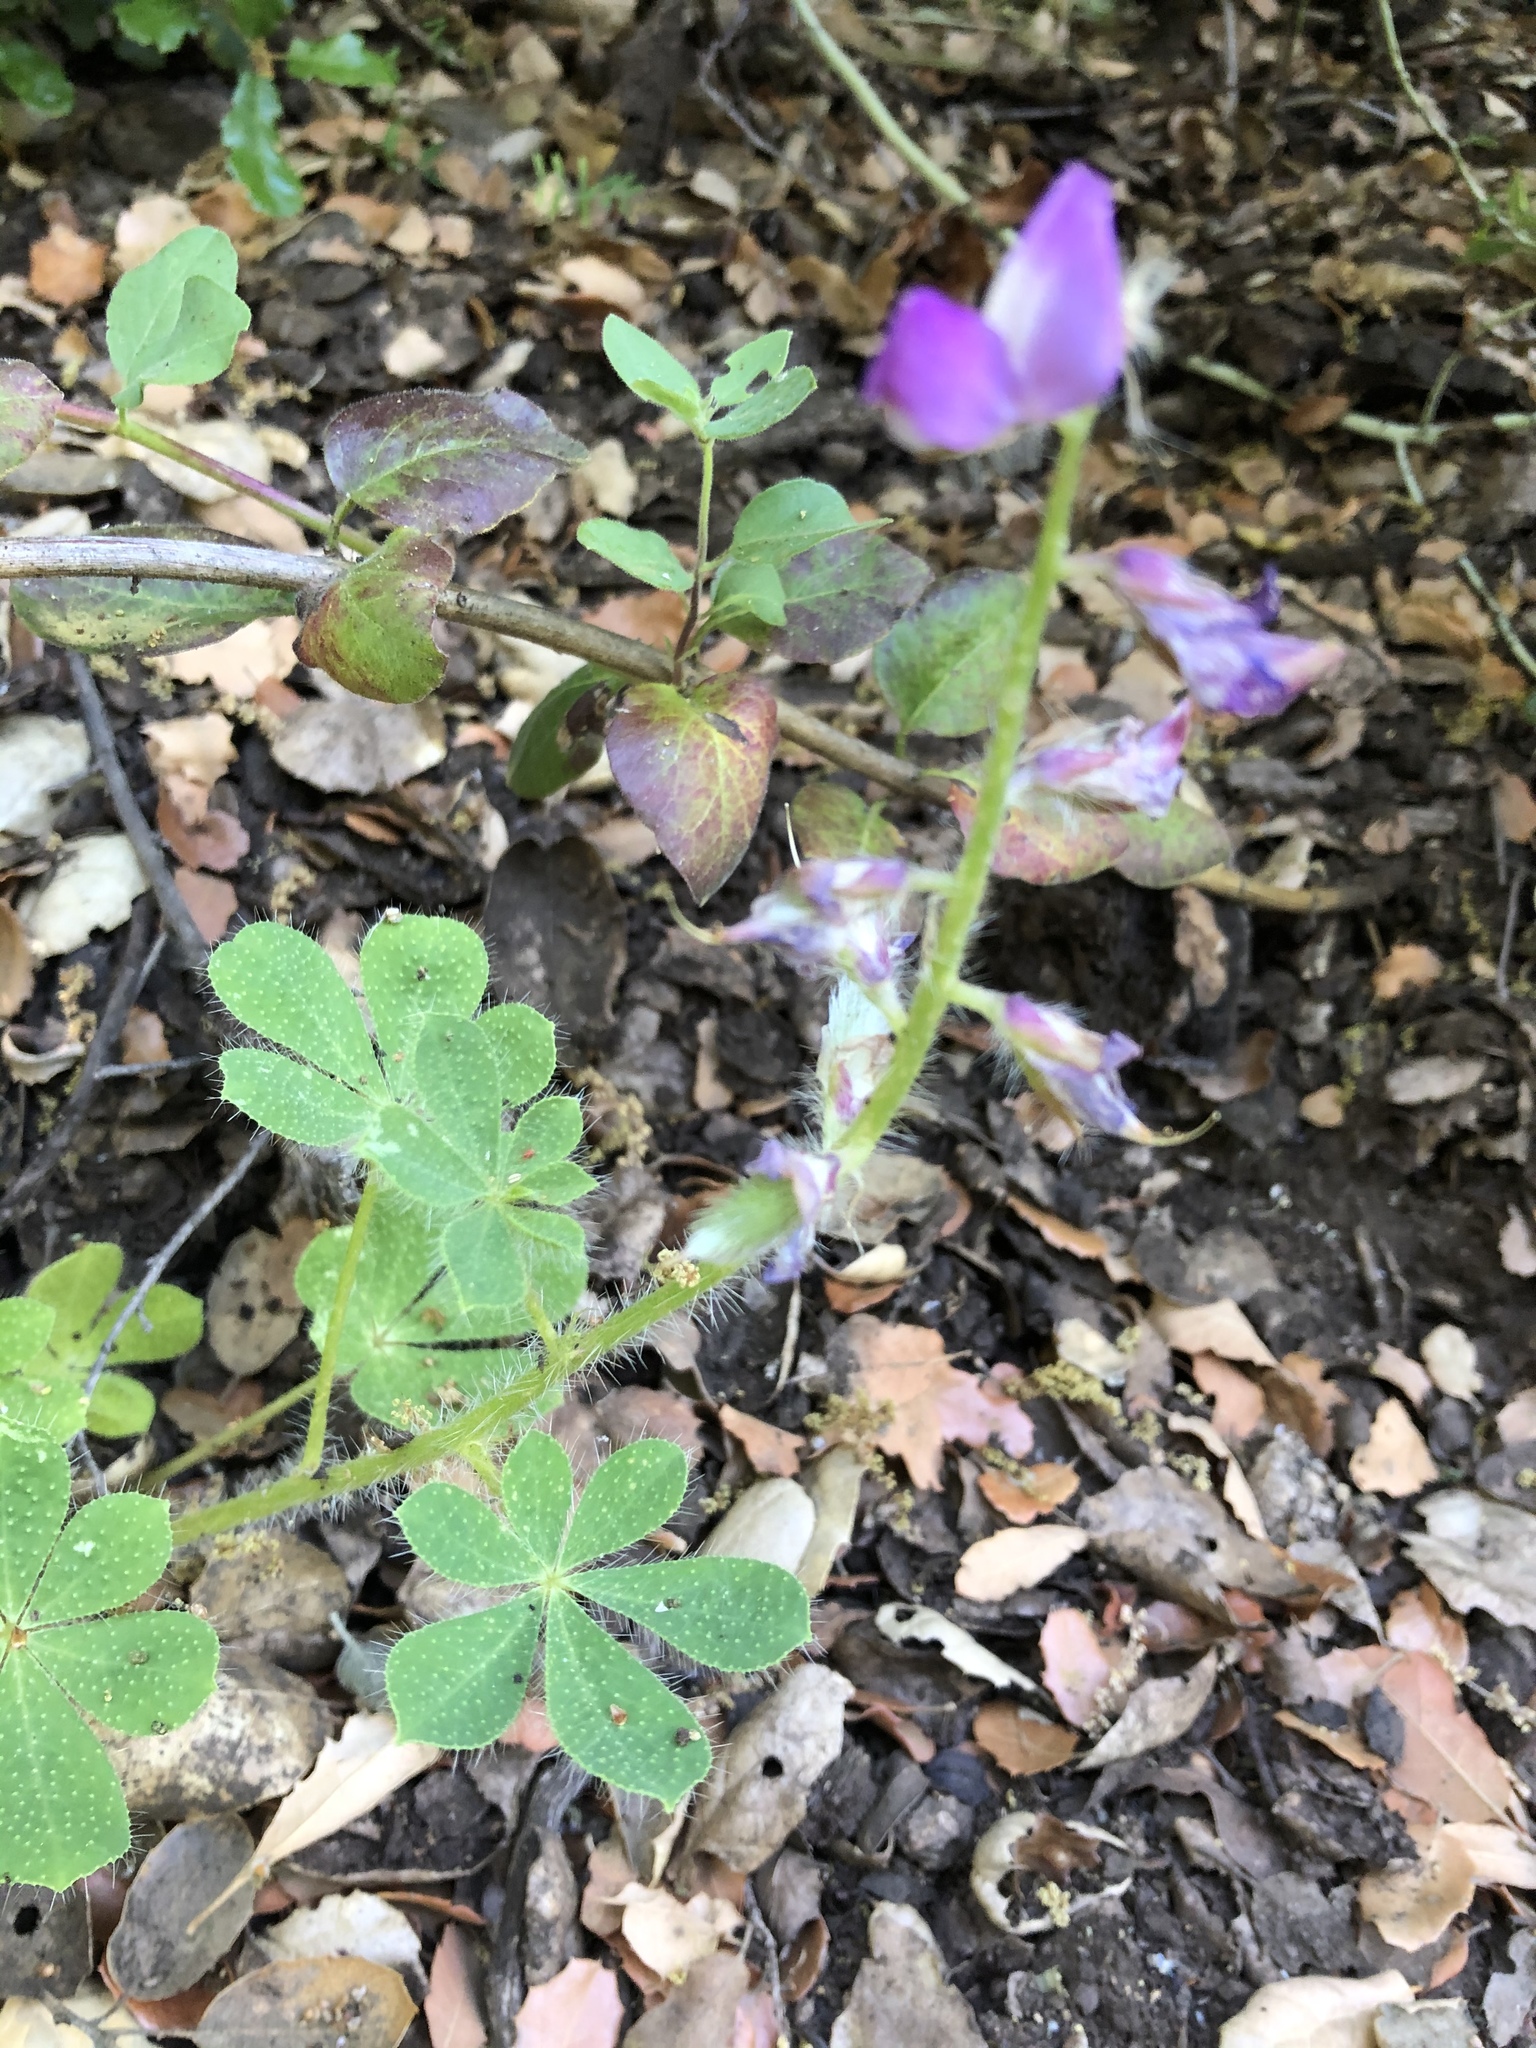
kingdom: Plantae
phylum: Tracheophyta
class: Magnoliopsida
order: Fabales
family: Fabaceae
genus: Lupinus
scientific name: Lupinus hirsutissimus
